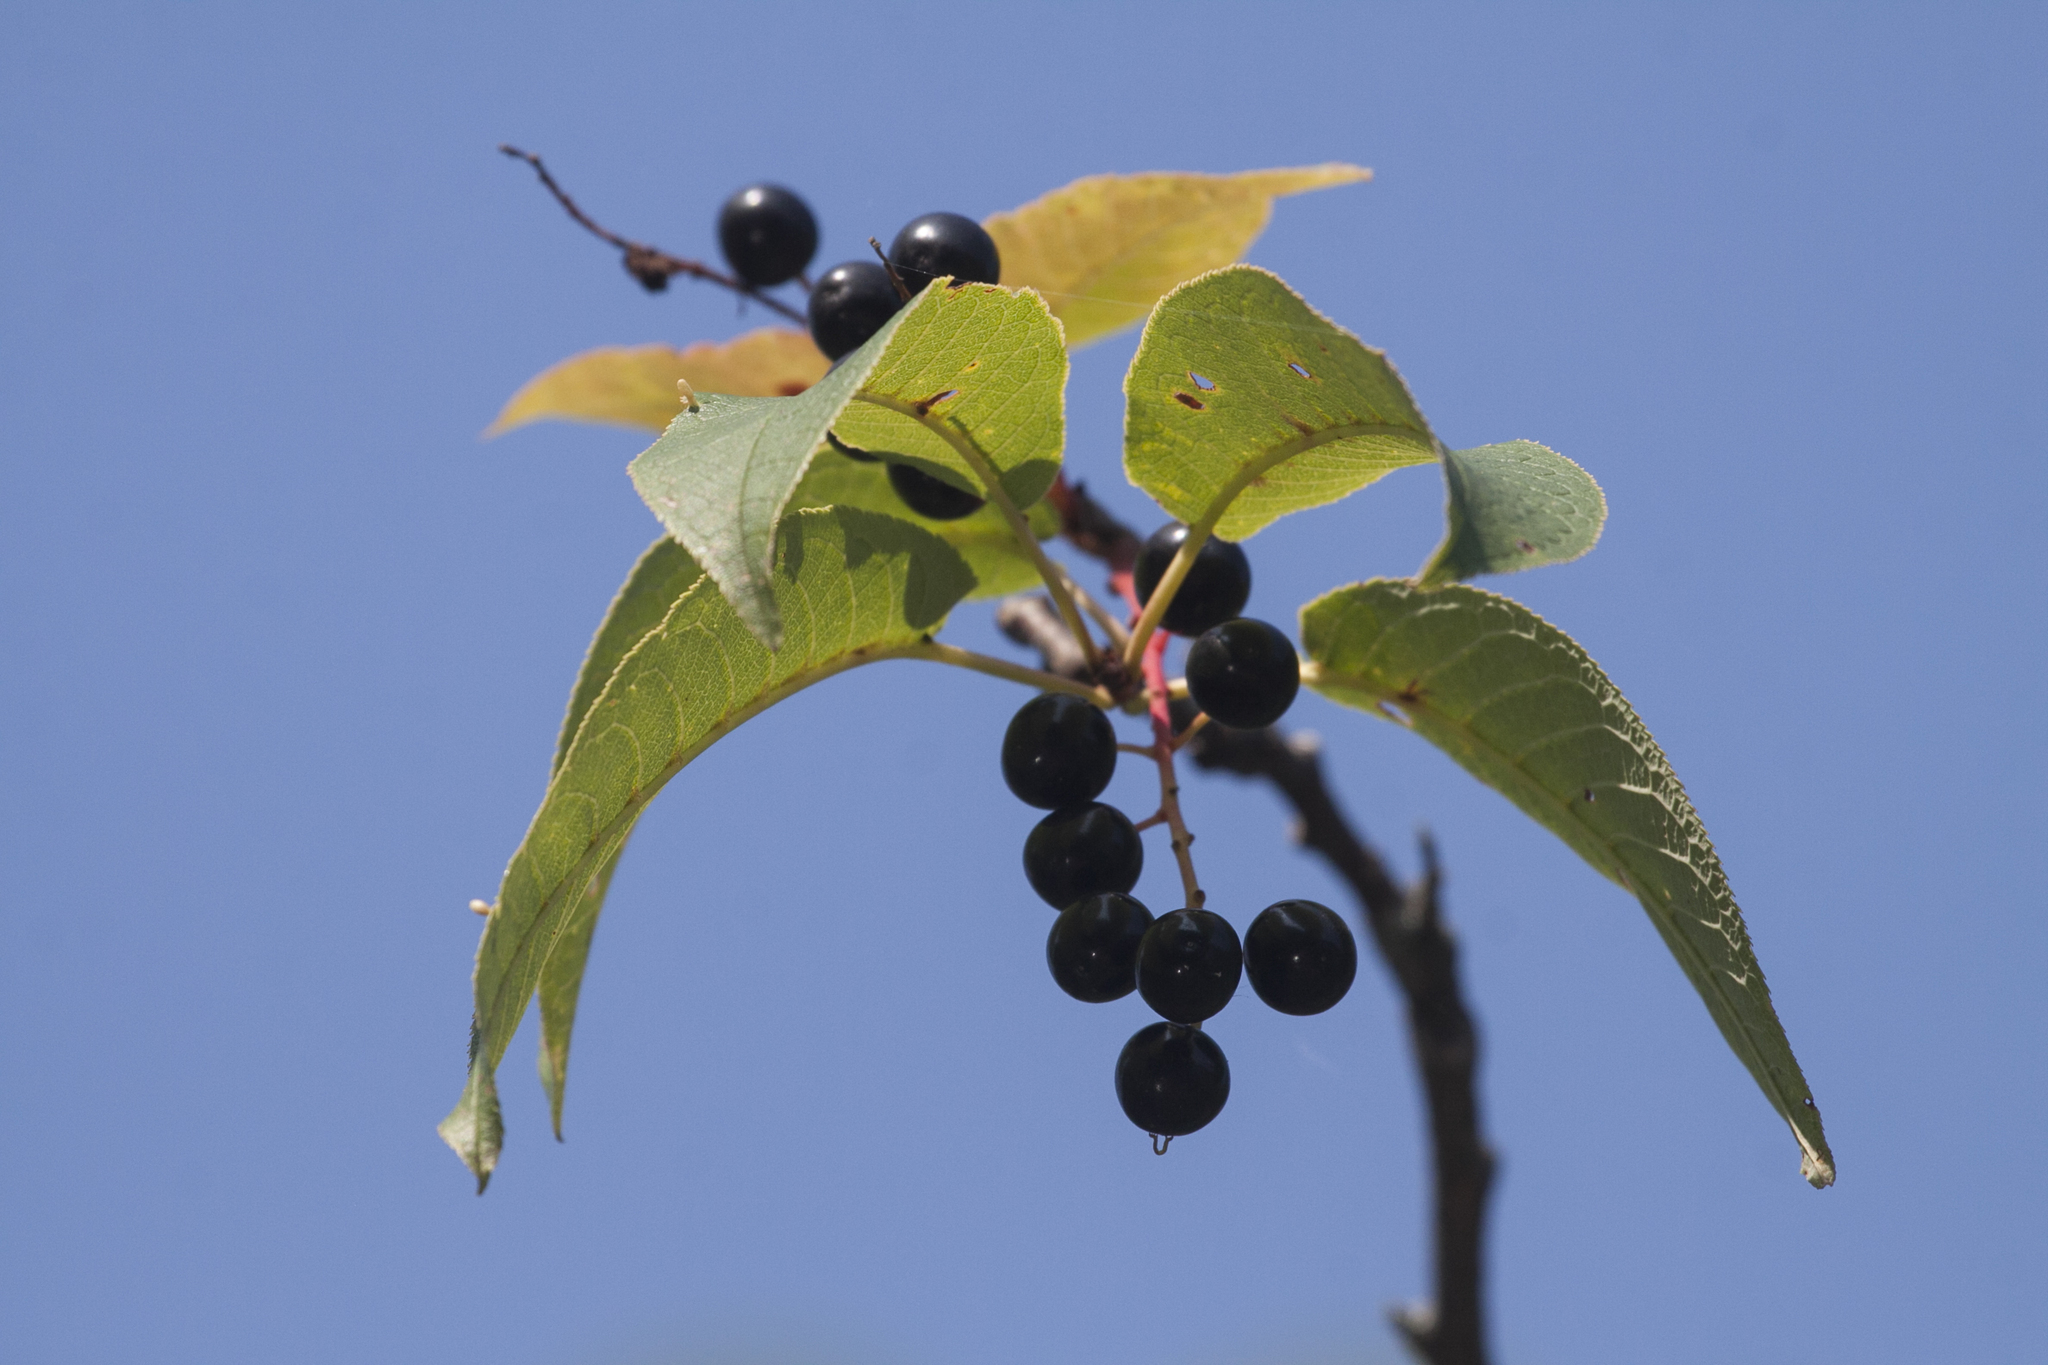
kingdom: Plantae
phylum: Tracheophyta
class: Magnoliopsida
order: Rosales
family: Rosaceae
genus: Prunus
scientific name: Prunus padus
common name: Bird cherry
